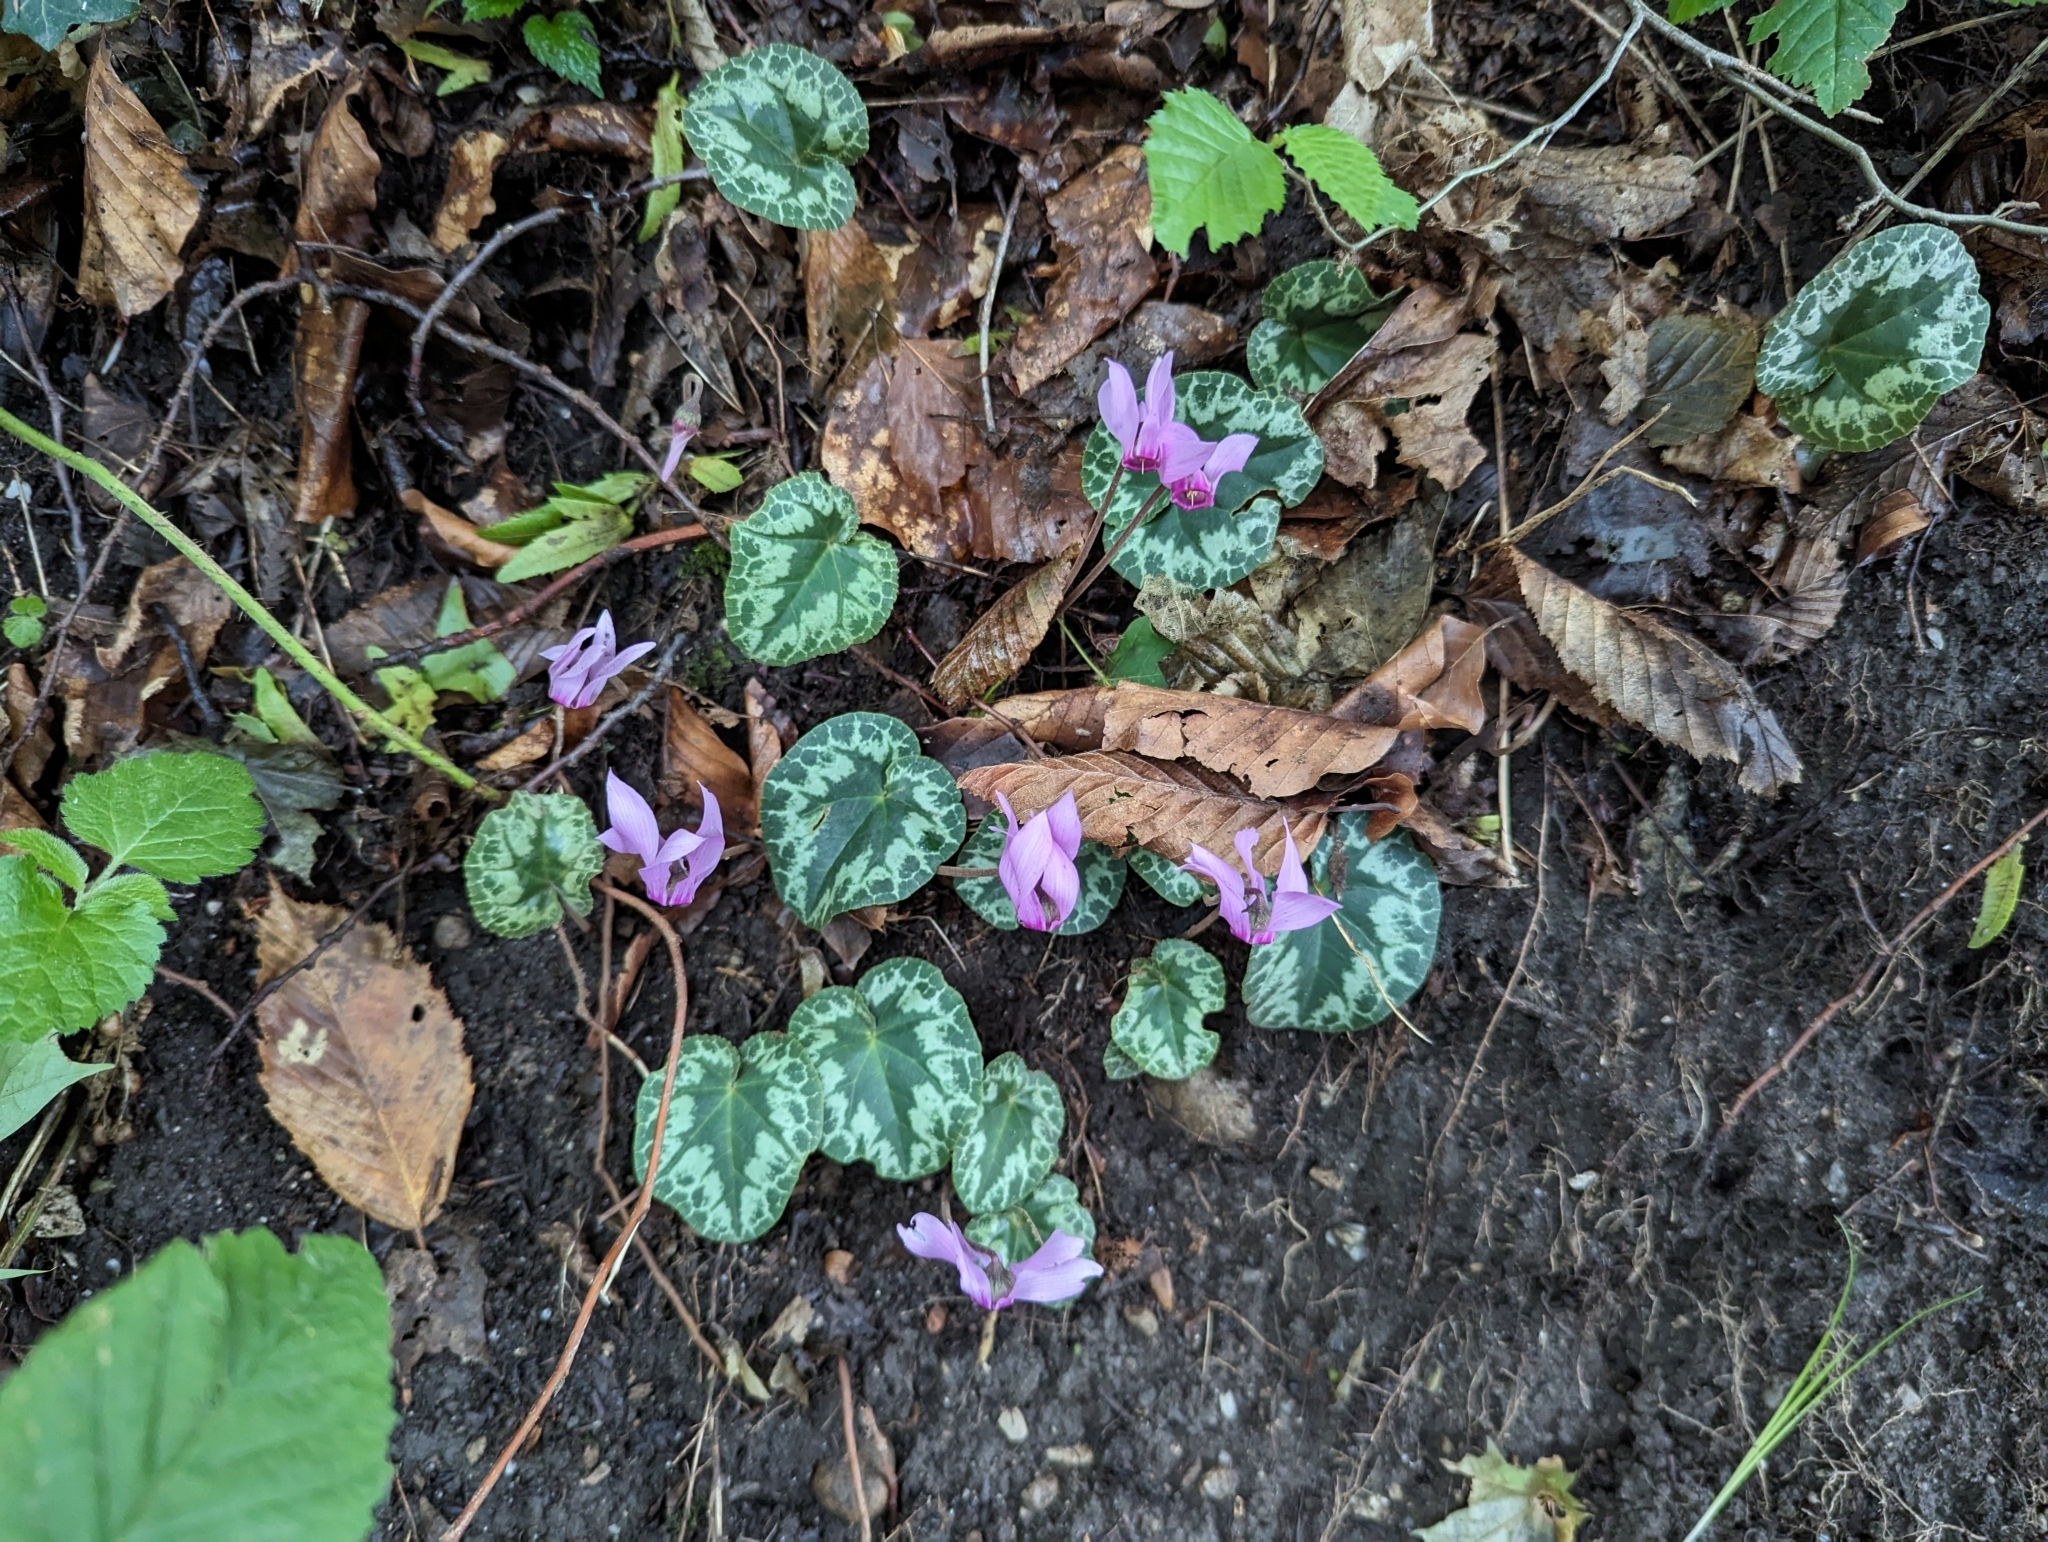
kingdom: Plantae
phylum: Tracheophyta
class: Magnoliopsida
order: Ericales
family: Primulaceae
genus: Cyclamen
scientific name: Cyclamen purpurascens
